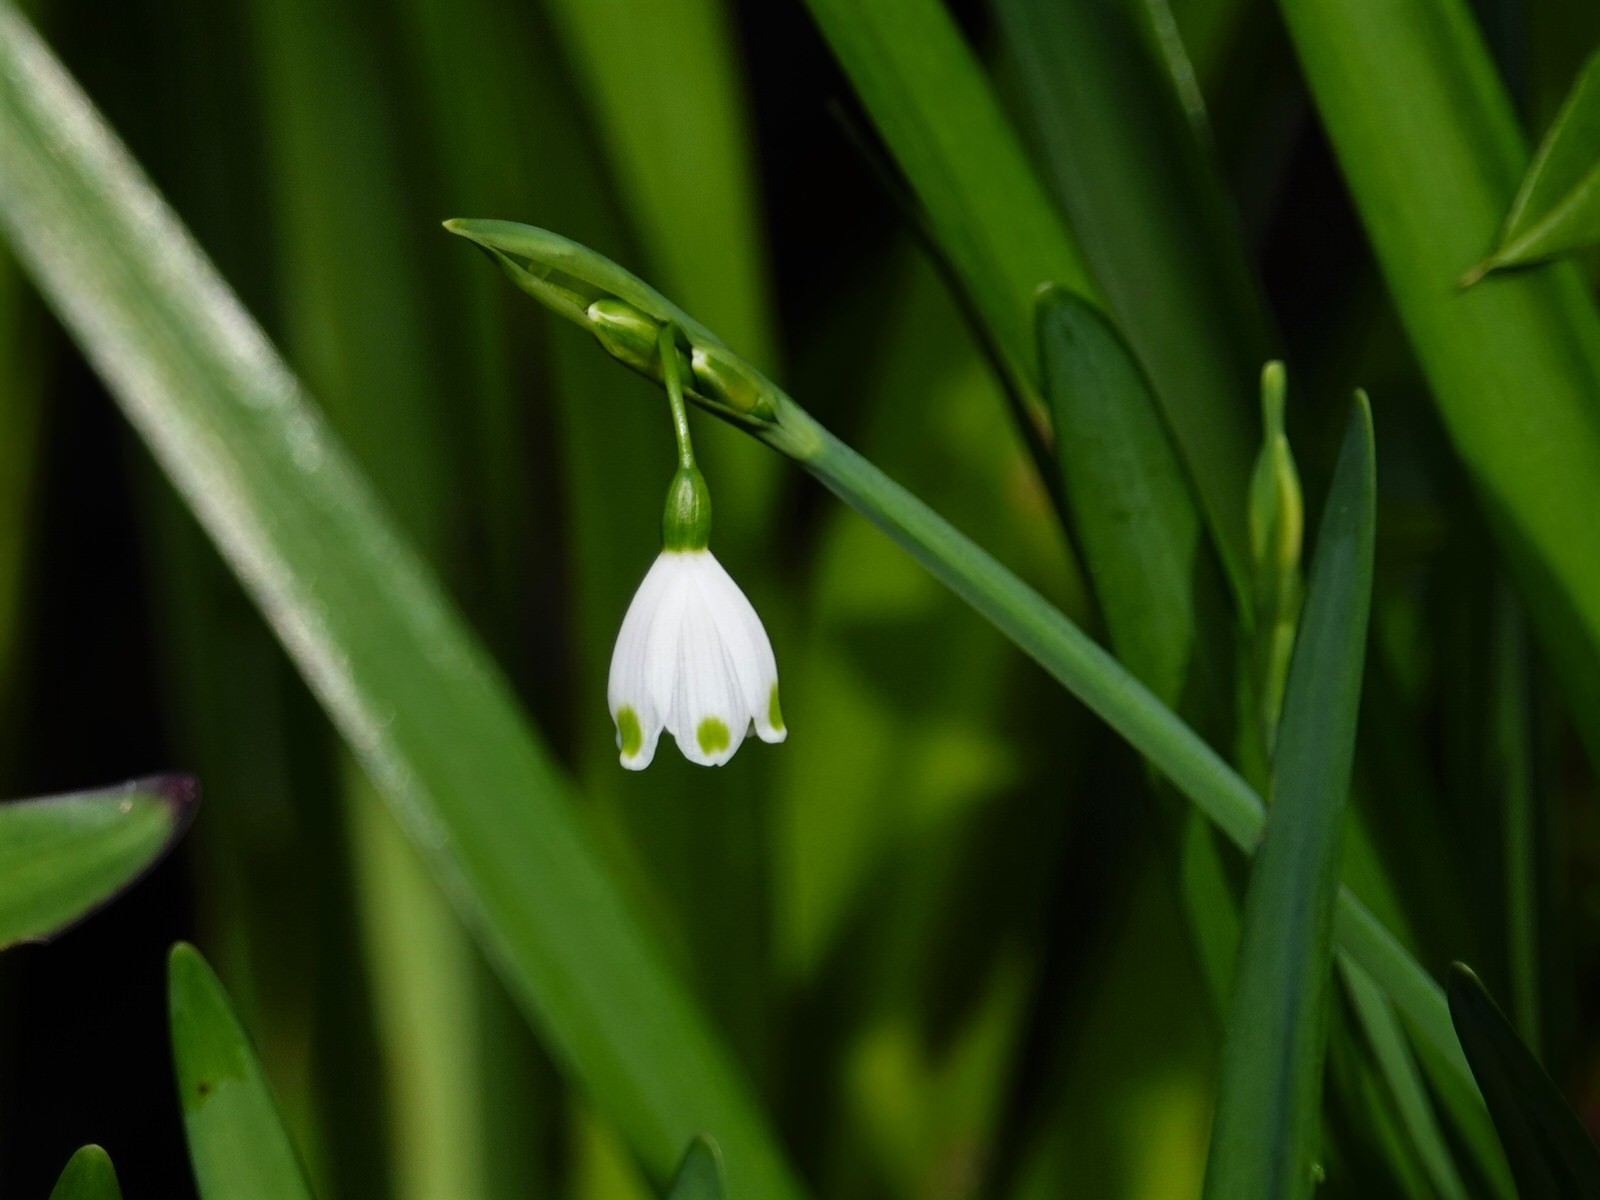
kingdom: Plantae
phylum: Tracheophyta
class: Liliopsida
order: Asparagales
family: Amaryllidaceae
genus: Leucojum
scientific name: Leucojum aestivum
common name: Summer snowflake
